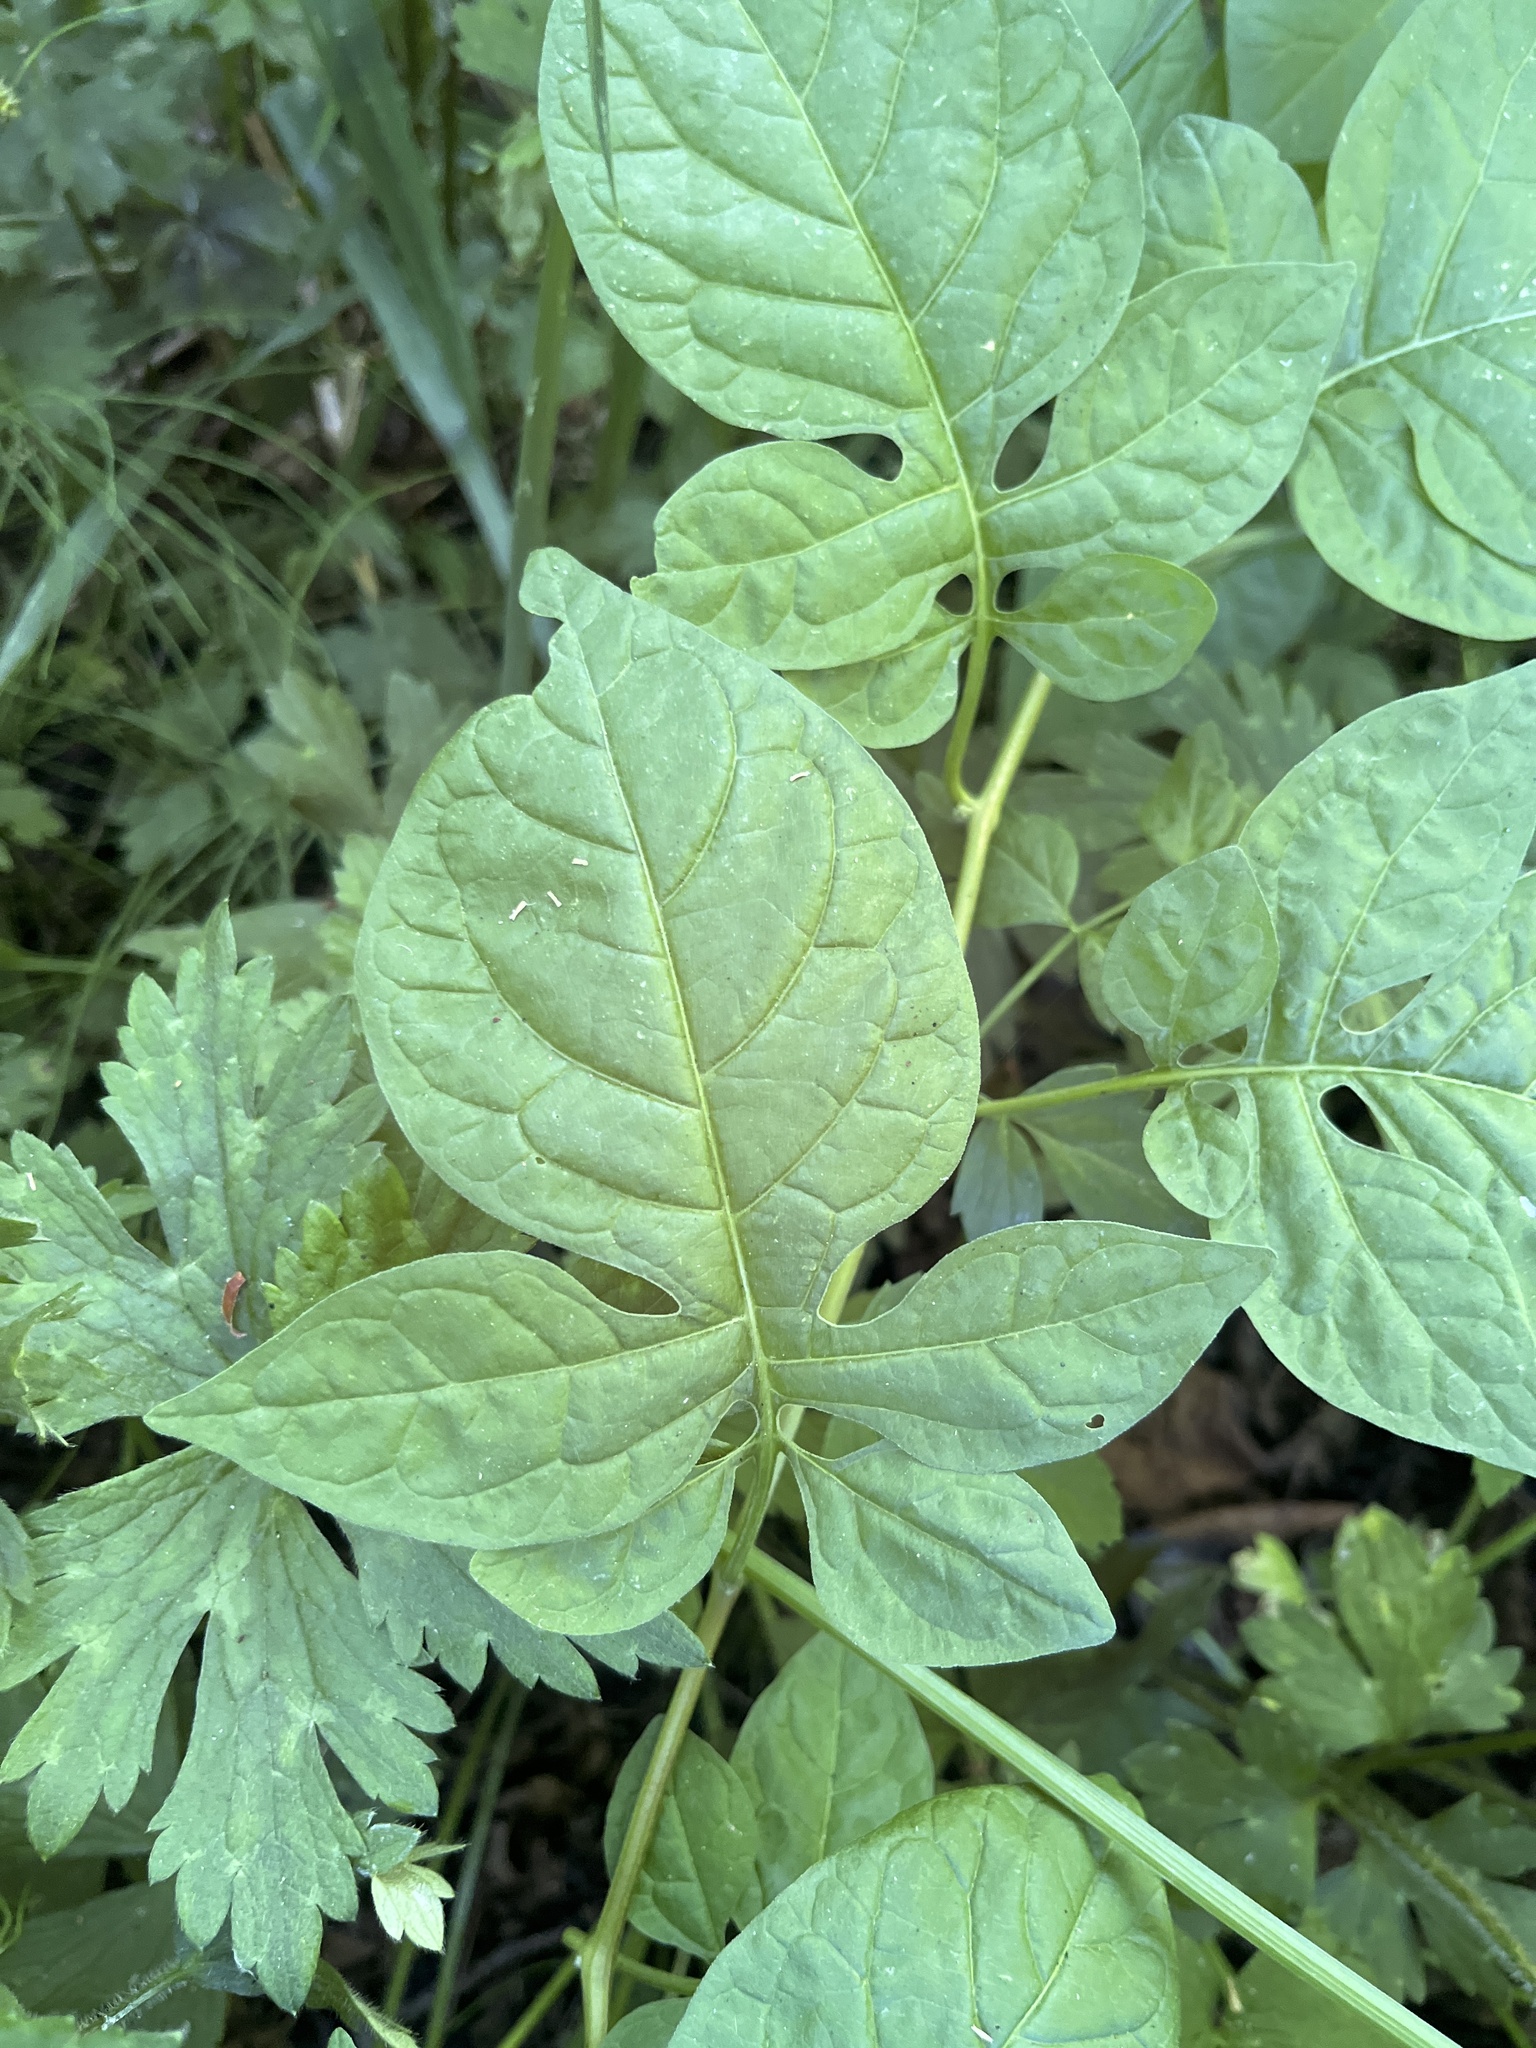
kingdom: Plantae
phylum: Tracheophyta
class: Magnoliopsida
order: Solanales
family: Solanaceae
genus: Solanum
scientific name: Solanum dulcamara
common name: Climbing nightshade
